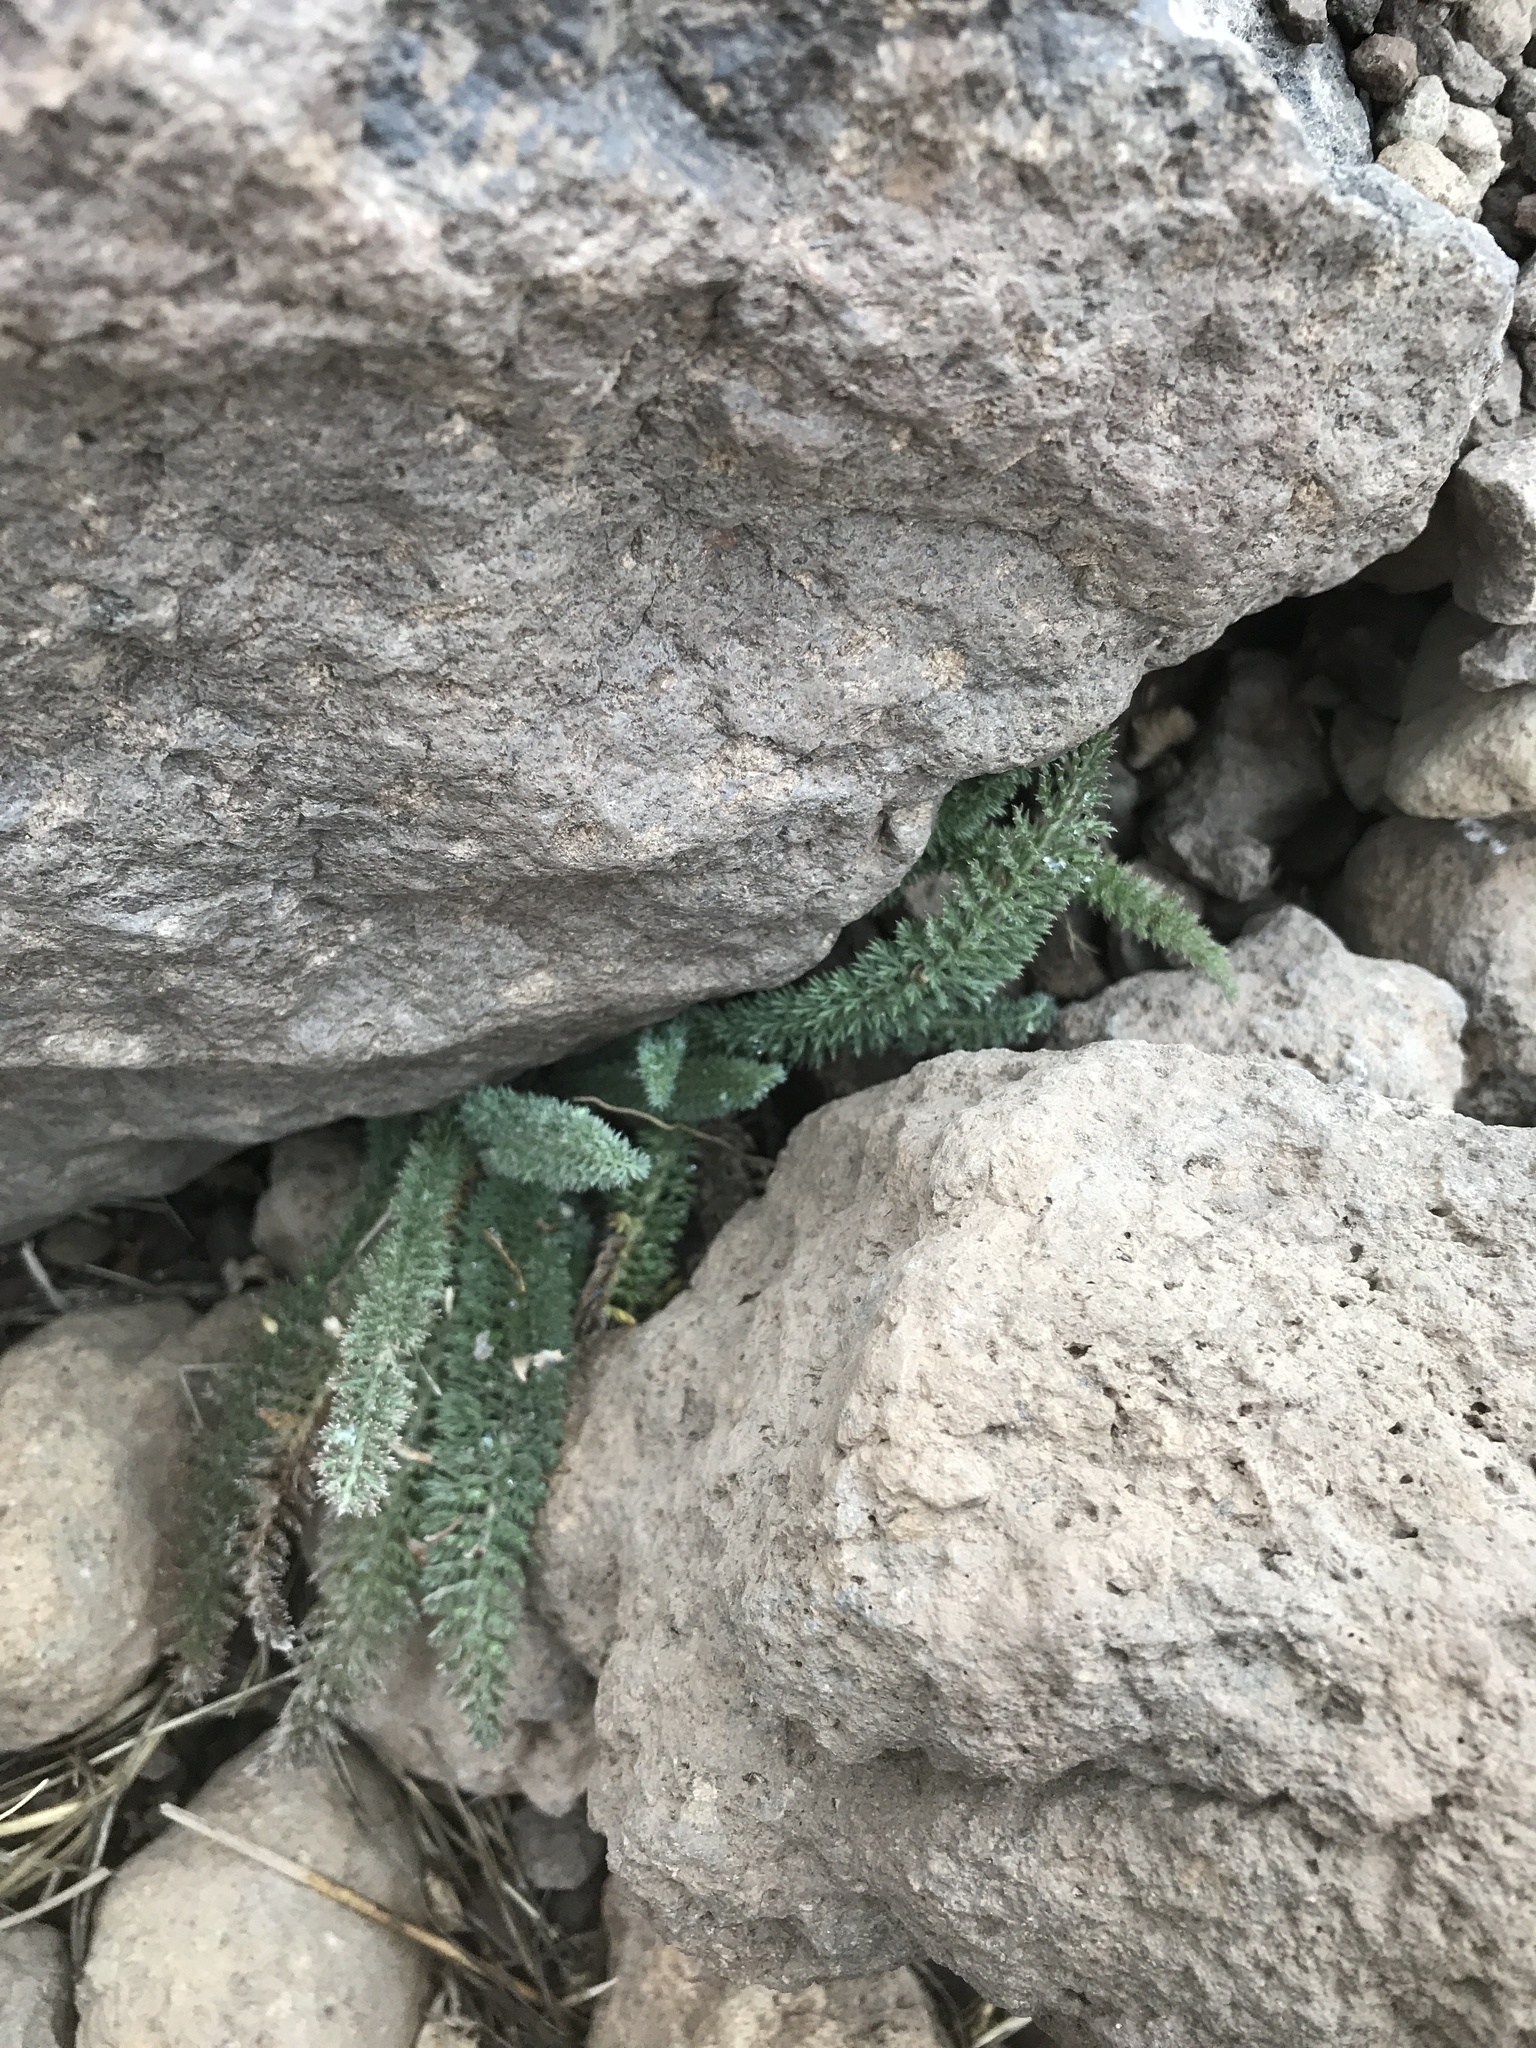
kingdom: Plantae
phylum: Tracheophyta
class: Magnoliopsida
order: Asterales
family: Asteraceae
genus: Achillea
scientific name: Achillea millefolium
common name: Yarrow
